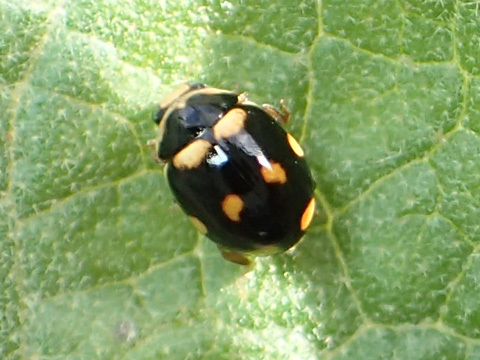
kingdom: Animalia
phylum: Arthropoda
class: Insecta
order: Coleoptera
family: Coccinellidae
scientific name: Coccinellidae
